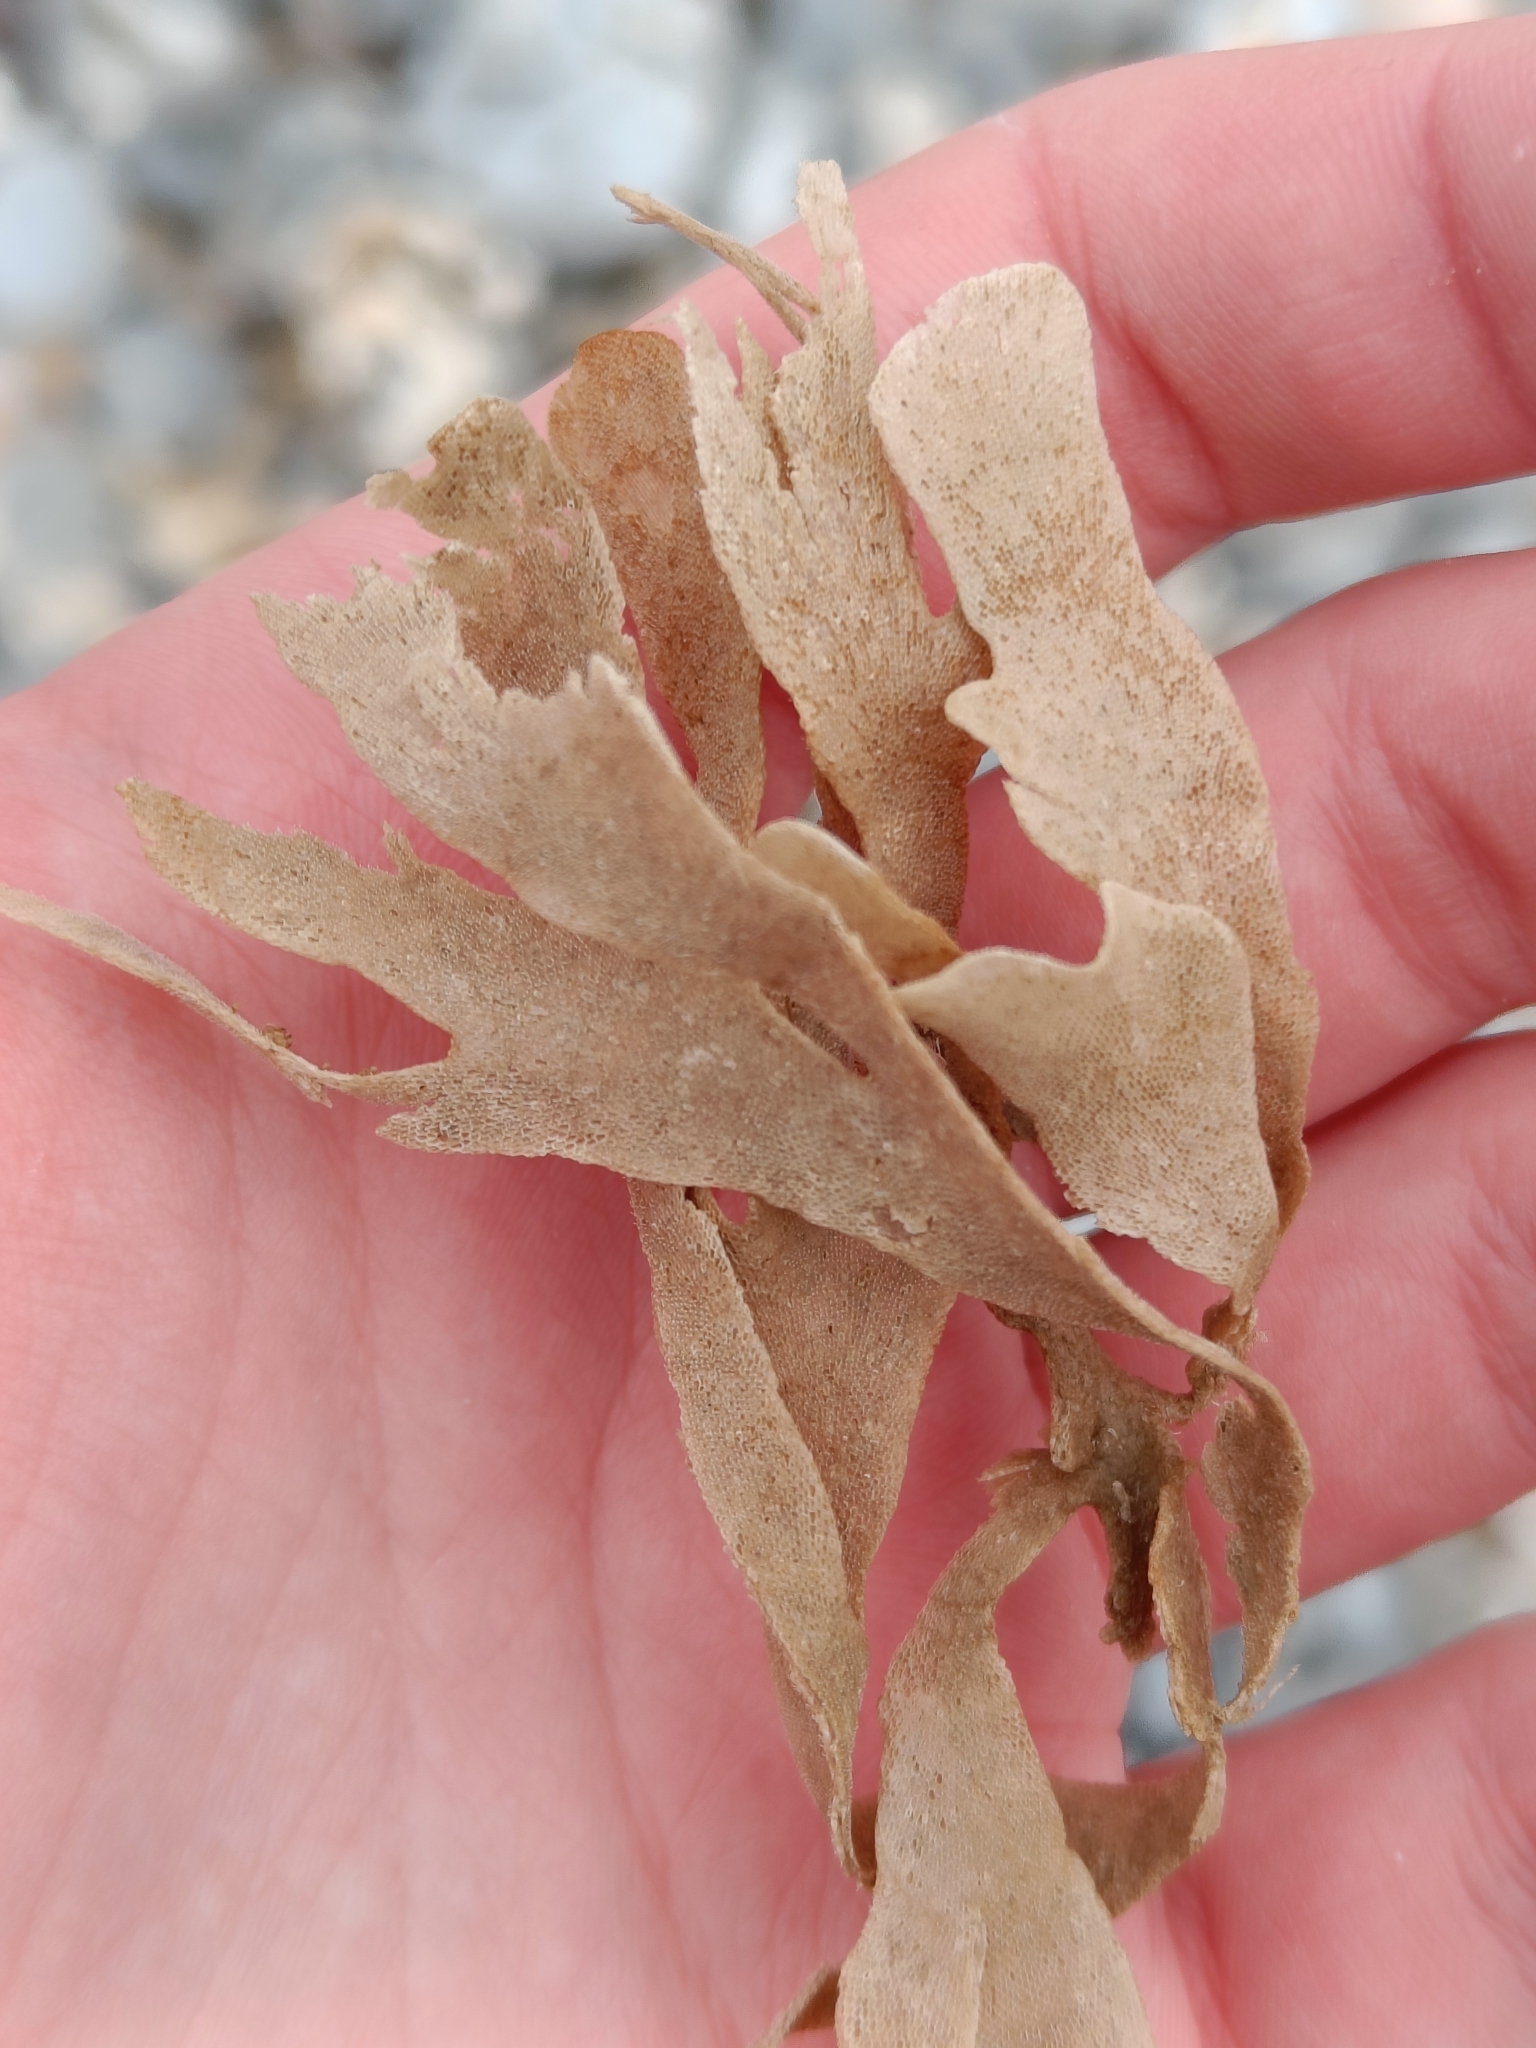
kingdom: Animalia
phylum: Bryozoa
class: Gymnolaemata
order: Cheilostomatida
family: Flustridae
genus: Flustra
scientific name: Flustra foliacea
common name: Hornwrack
